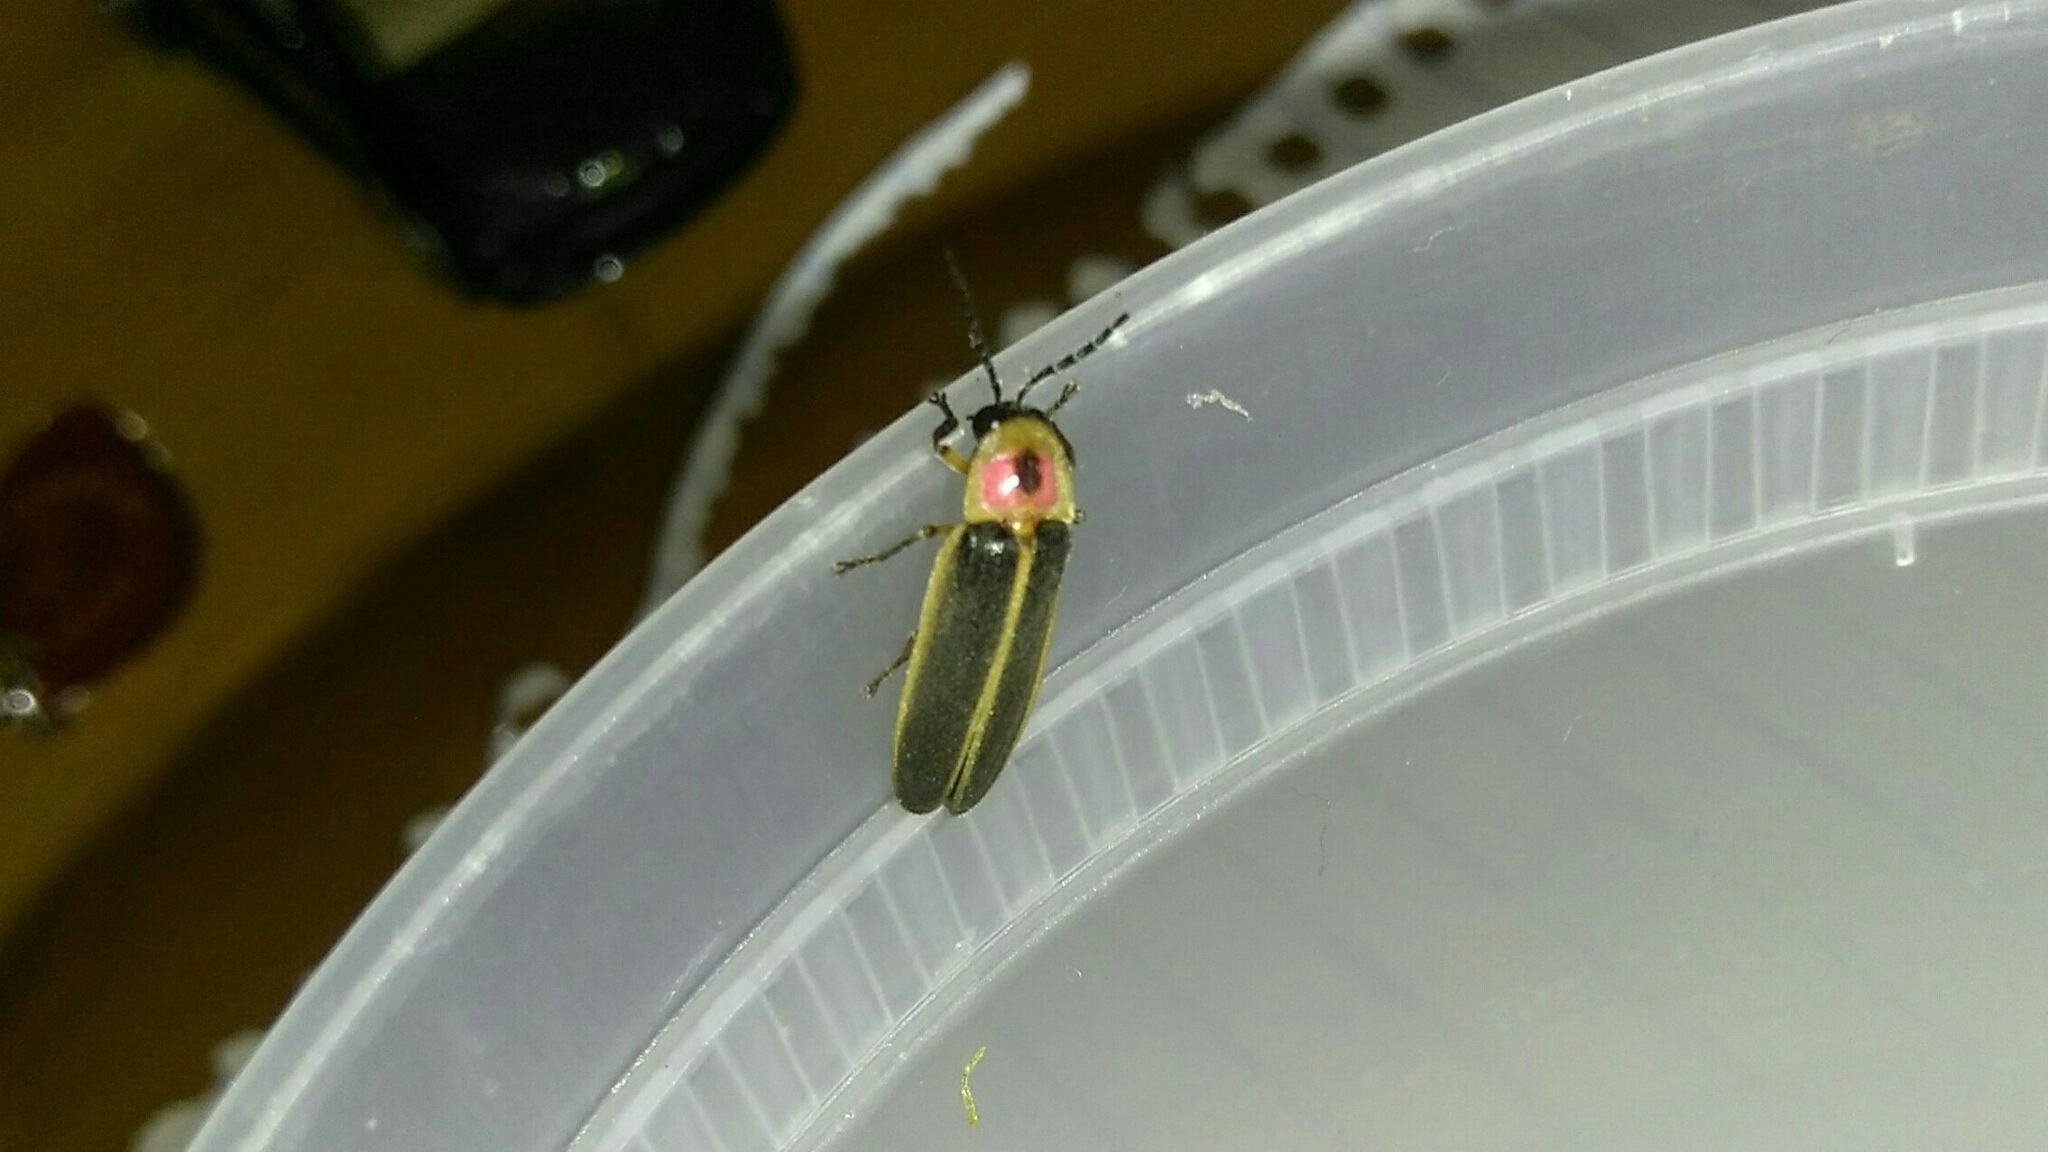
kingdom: Animalia
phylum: Arthropoda
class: Insecta
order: Coleoptera
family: Lampyridae
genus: Photinus
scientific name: Photinus pyralis
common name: Big dipper firefly
